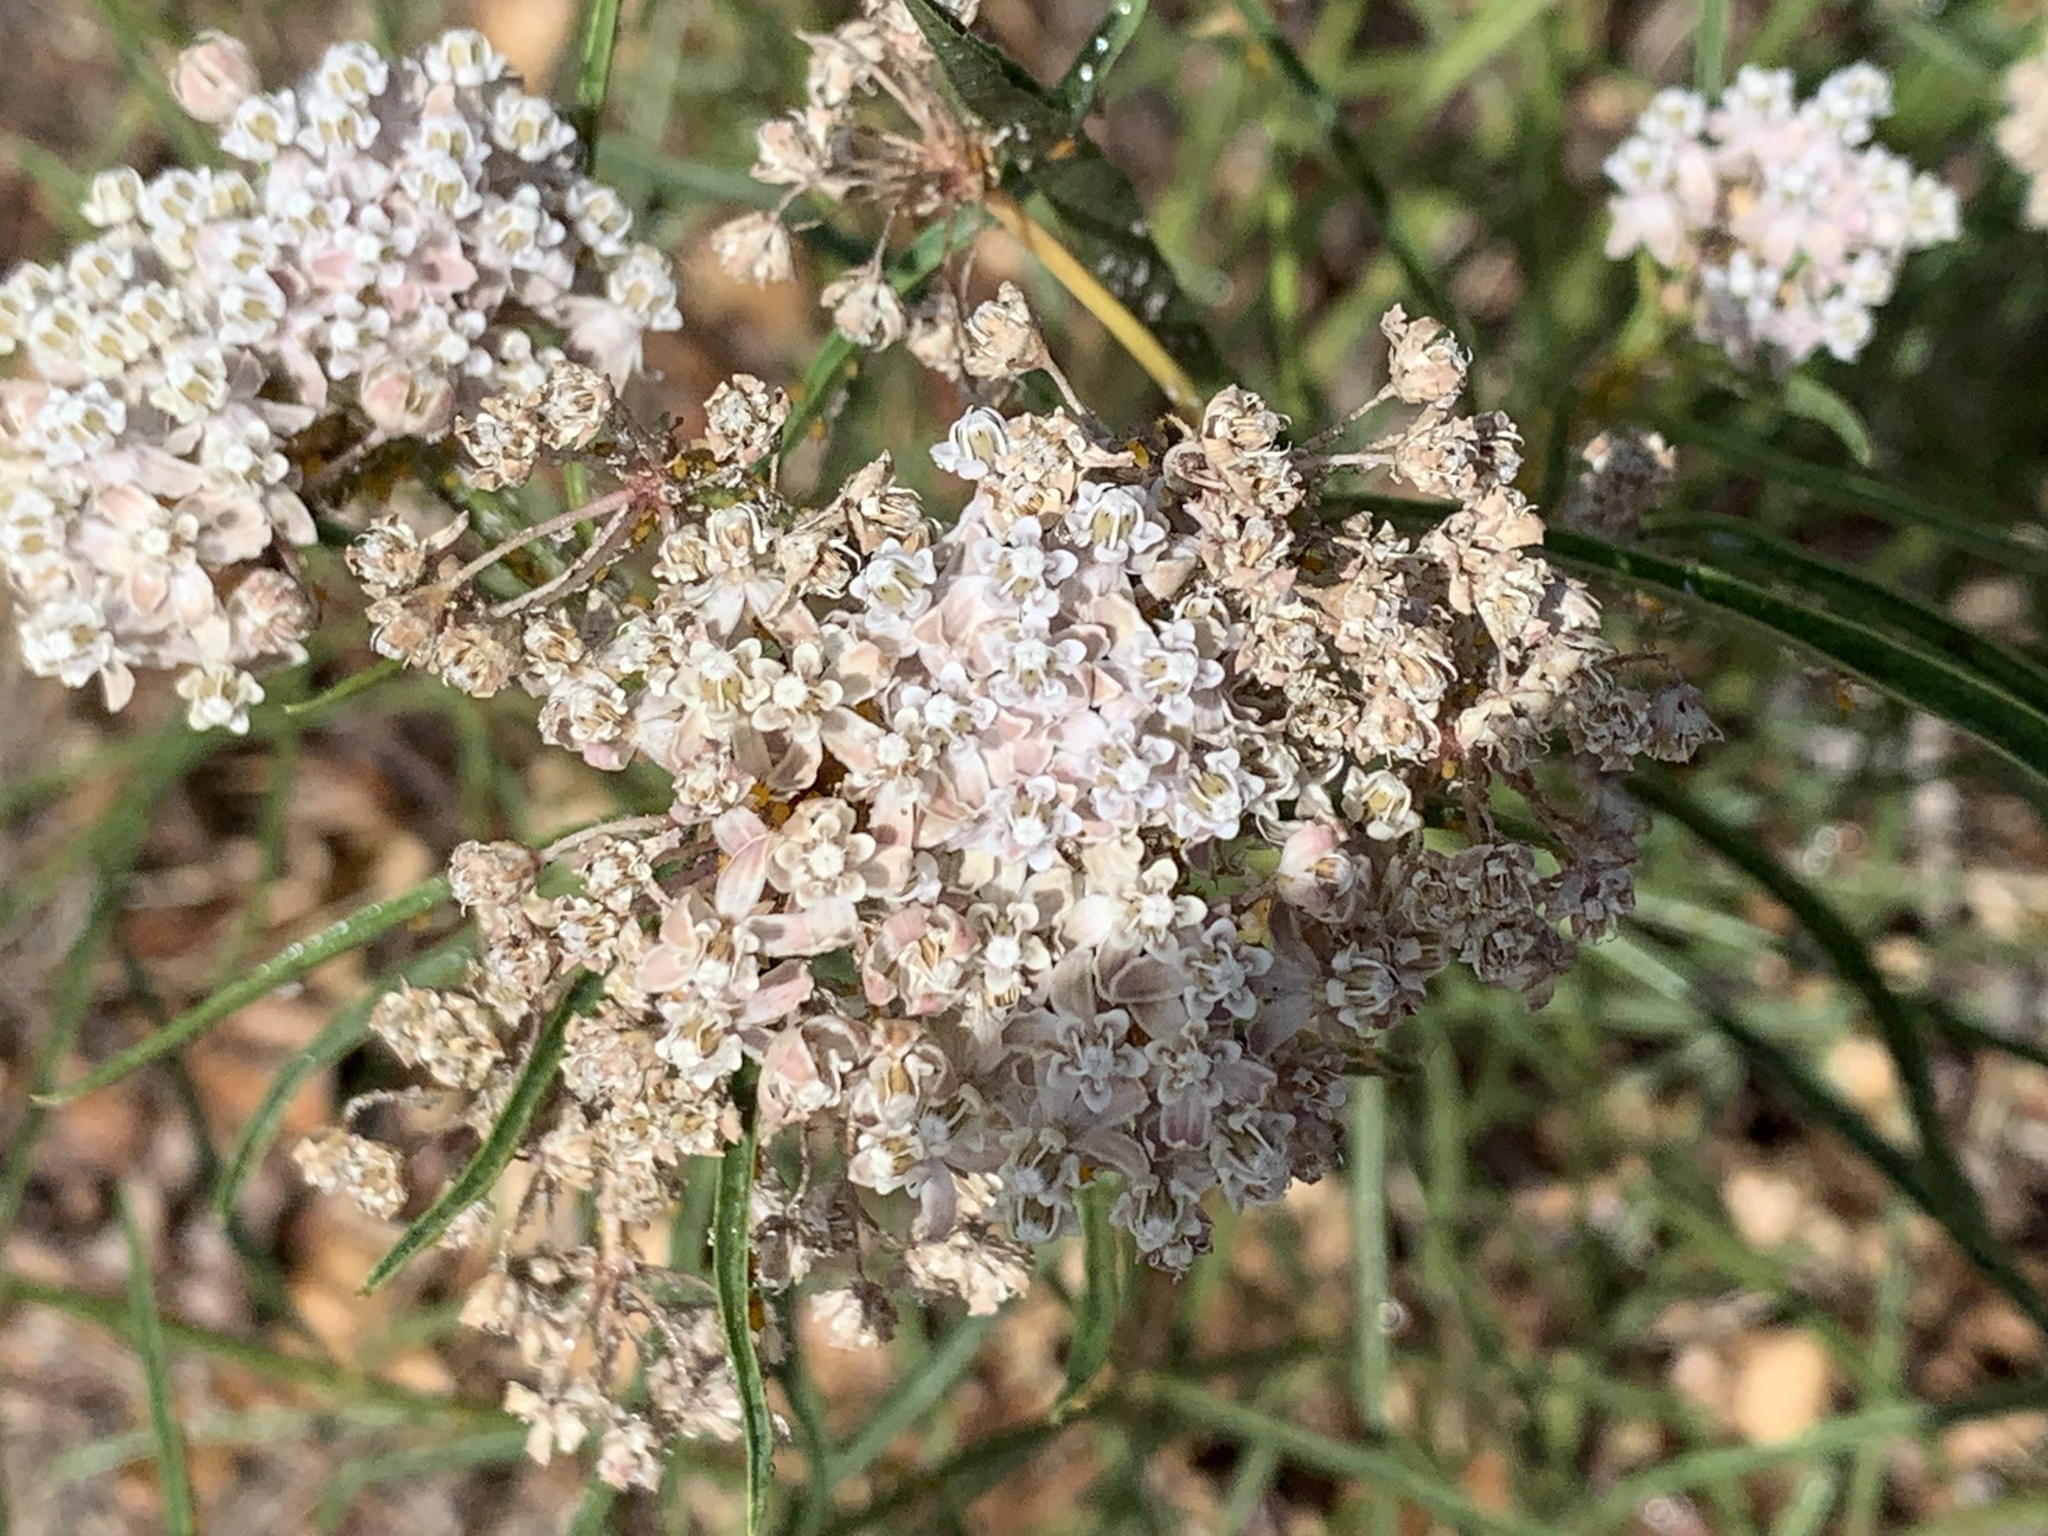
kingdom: Plantae
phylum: Tracheophyta
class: Magnoliopsida
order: Gentianales
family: Apocynaceae
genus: Asclepias
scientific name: Asclepias fascicularis
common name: Mexican milkweed
